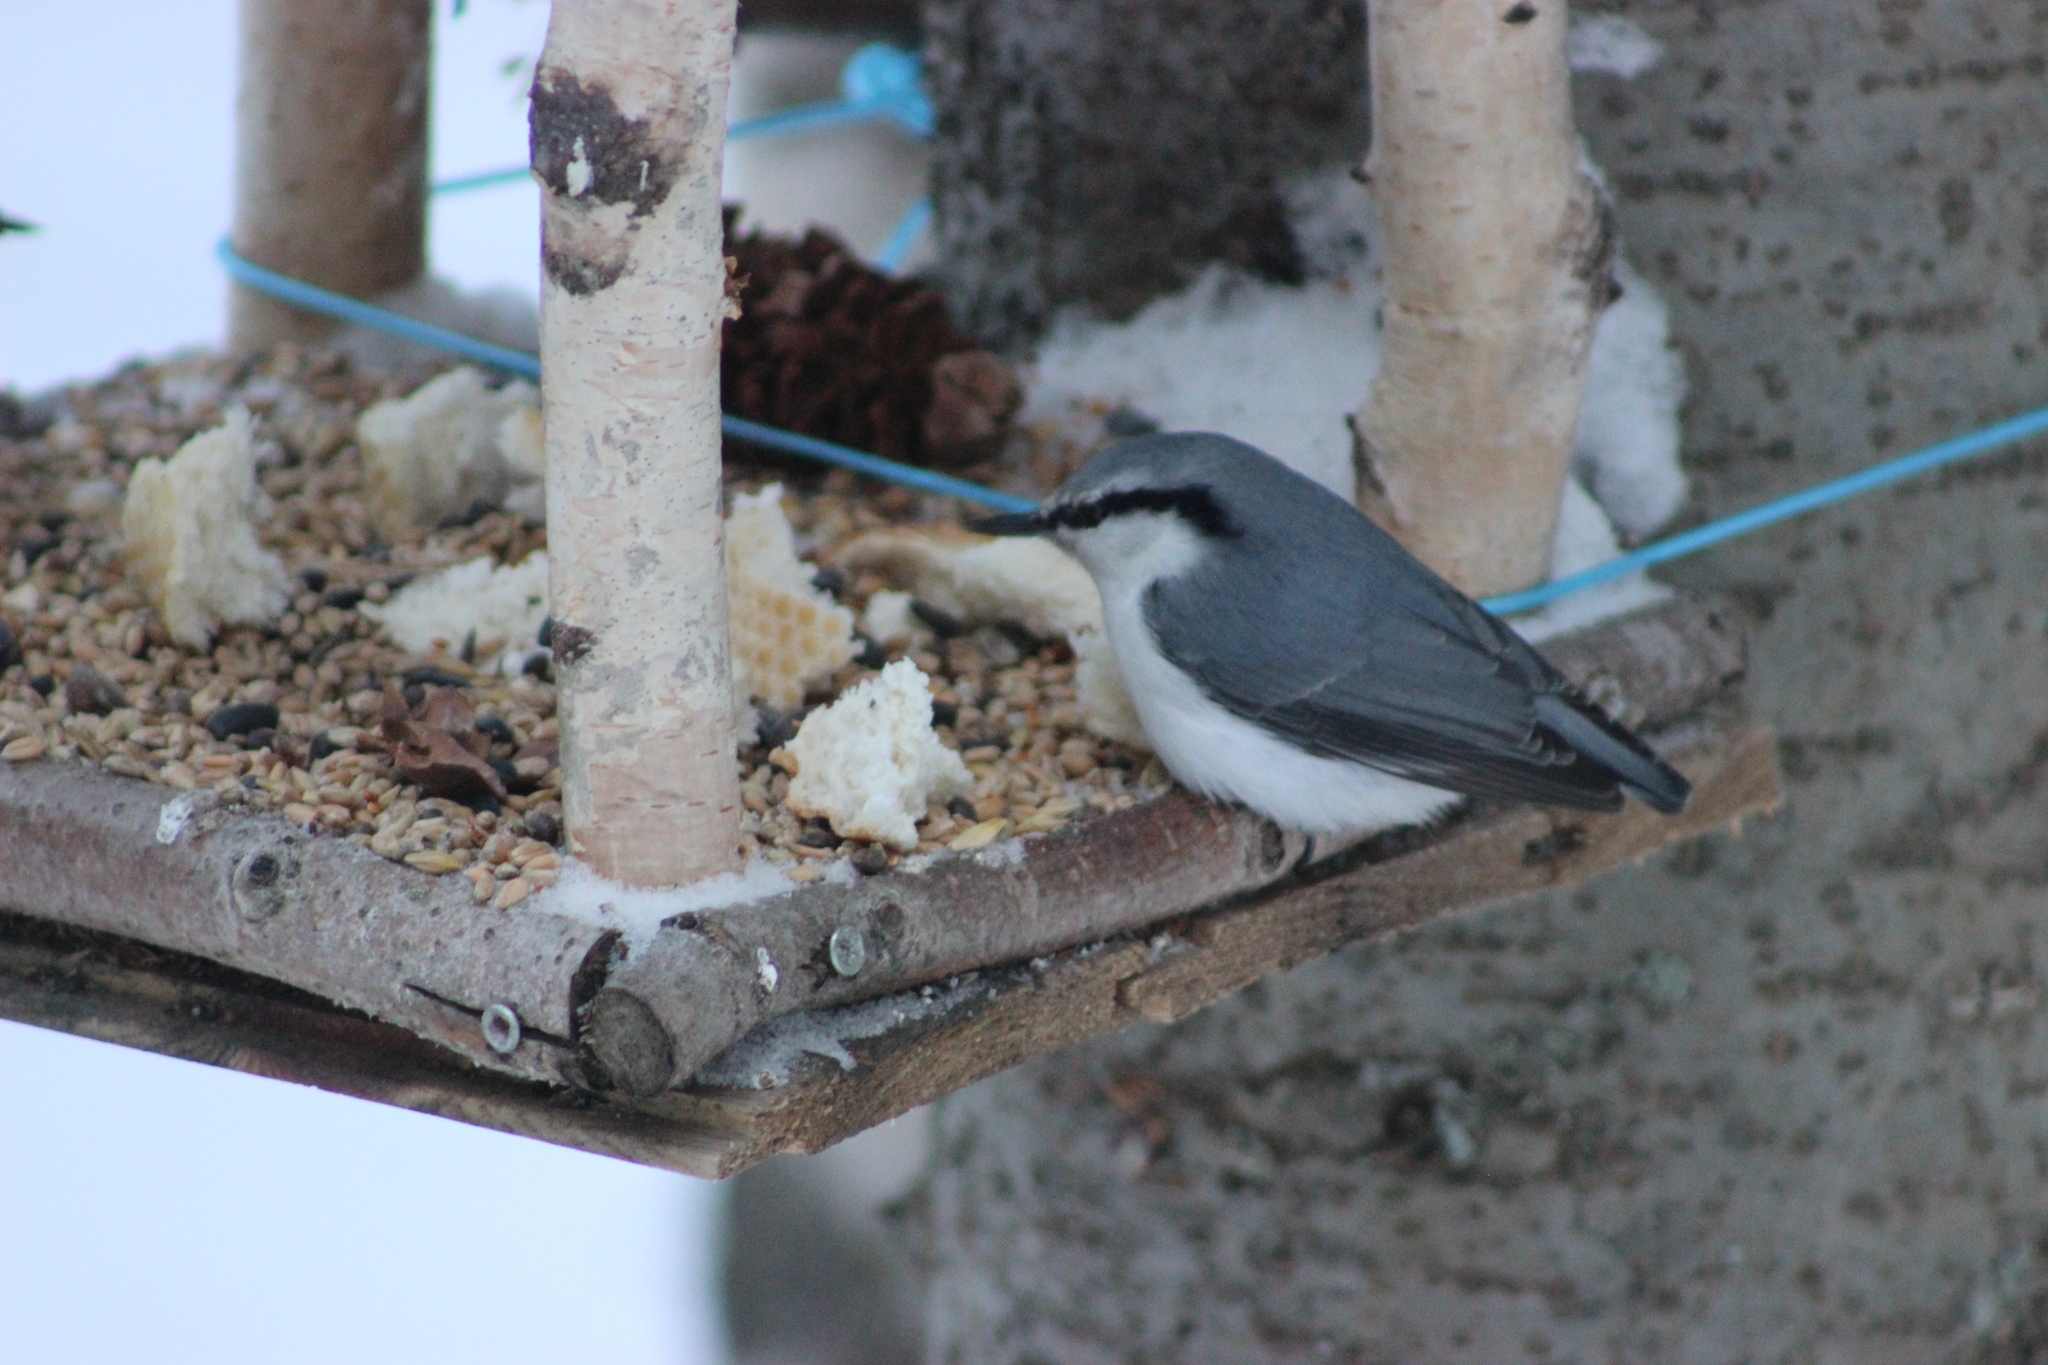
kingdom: Animalia
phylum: Chordata
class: Aves
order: Passeriformes
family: Sittidae
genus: Sitta
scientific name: Sitta europaea
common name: Eurasian nuthatch
